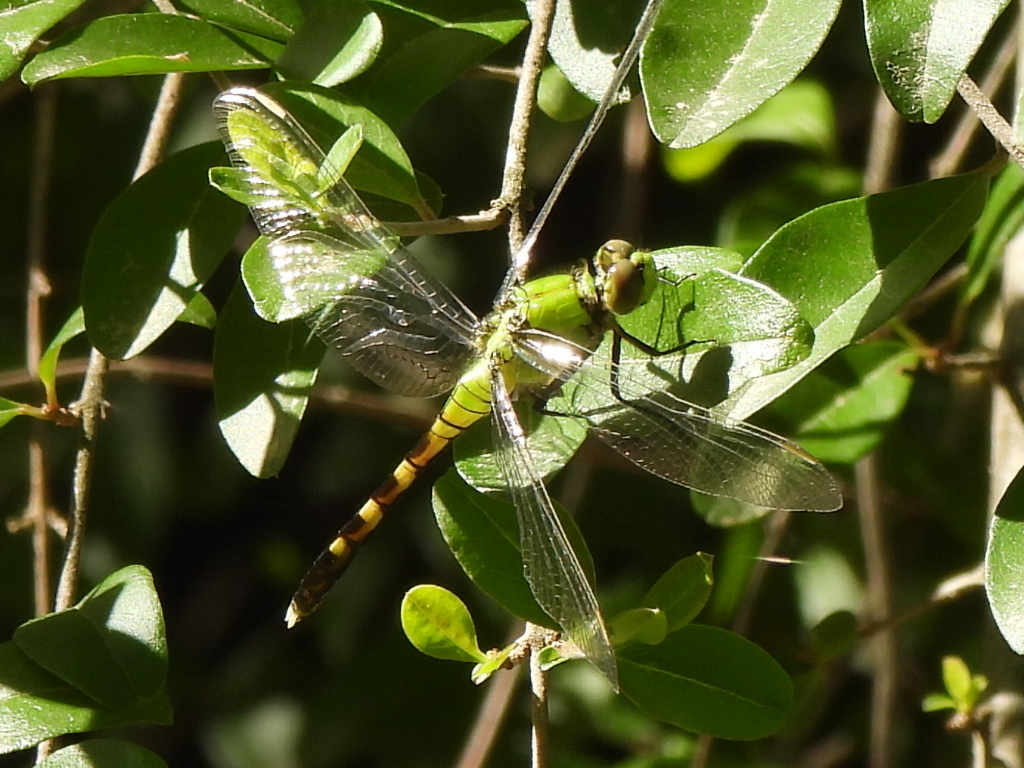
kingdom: Animalia
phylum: Arthropoda
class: Insecta
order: Odonata
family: Libellulidae
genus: Erythemis
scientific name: Erythemis simplicicollis
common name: Eastern pondhawk
